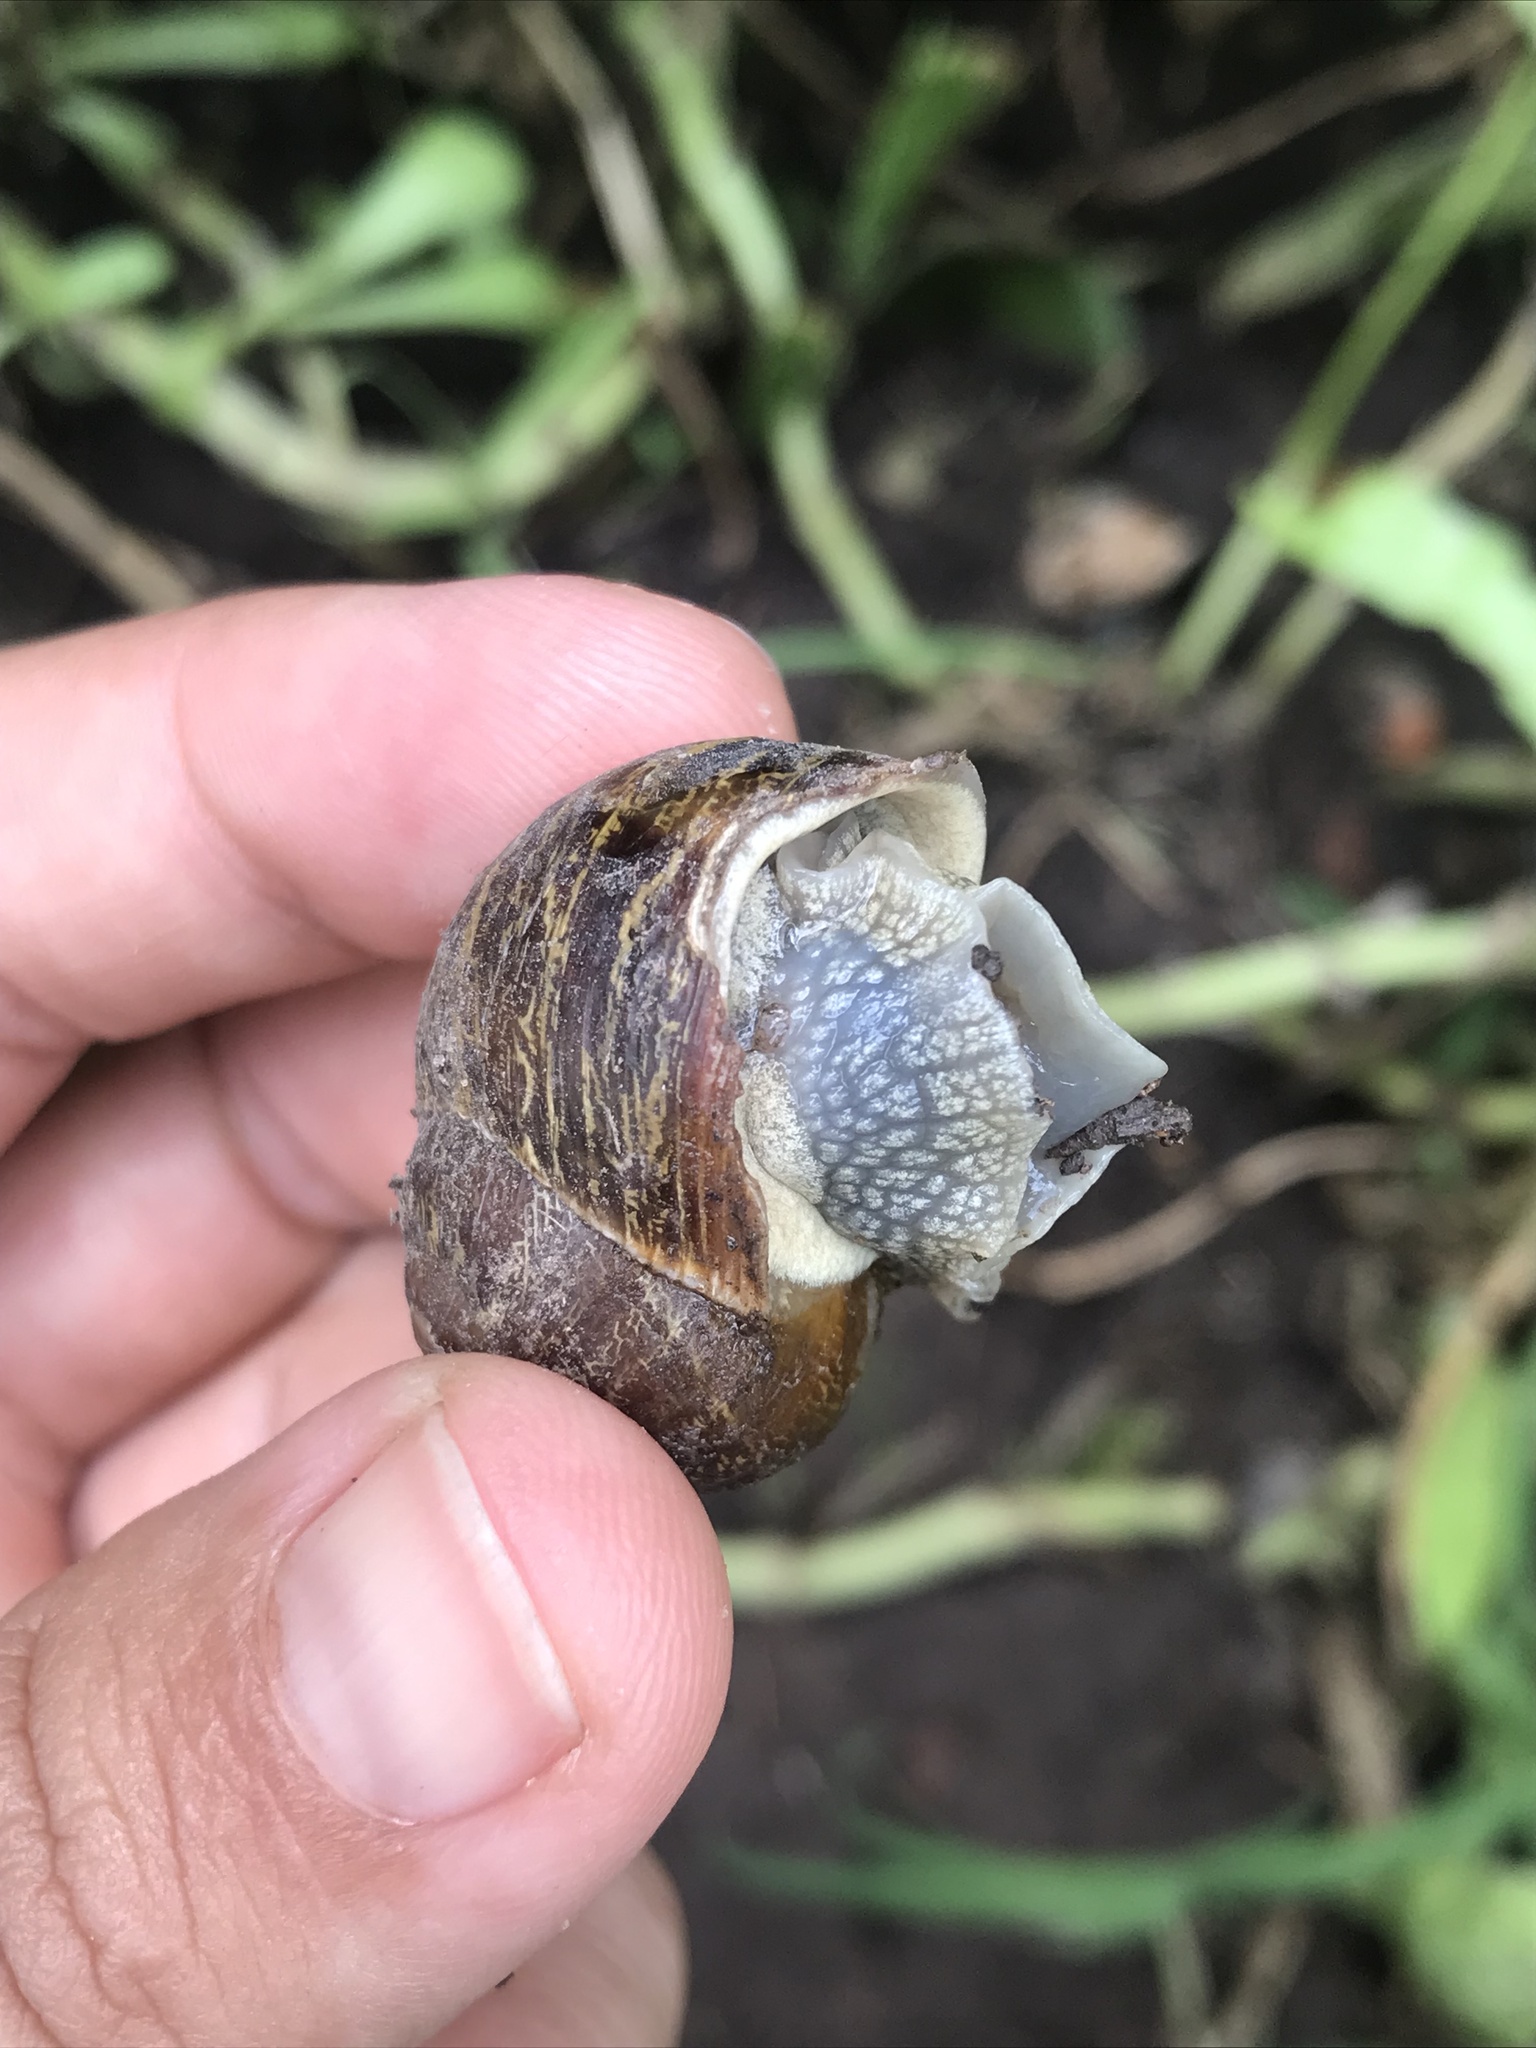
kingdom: Animalia
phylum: Mollusca
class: Gastropoda
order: Stylommatophora
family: Helicidae
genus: Cornu
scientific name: Cornu aspersum
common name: Brown garden snail
